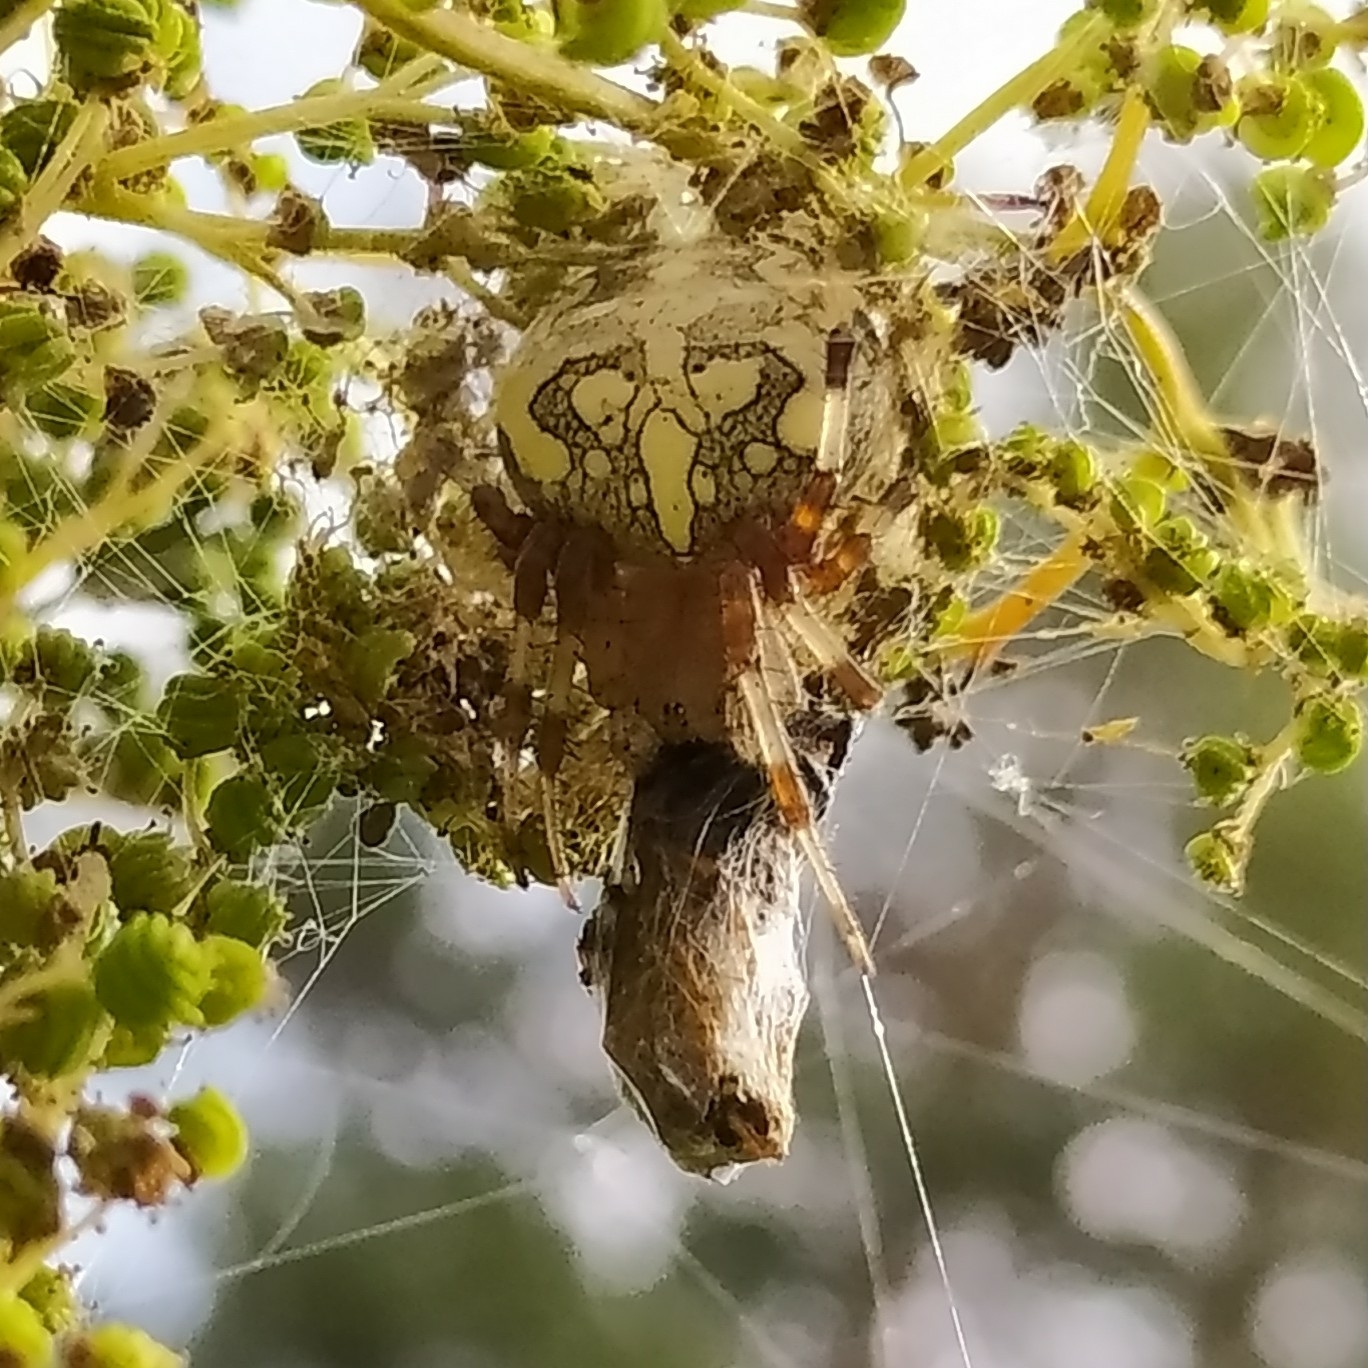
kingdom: Animalia
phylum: Arthropoda
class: Arachnida
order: Araneae
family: Araneidae
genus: Araneus
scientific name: Araneus marmoreus
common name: Marbled orbweaver
